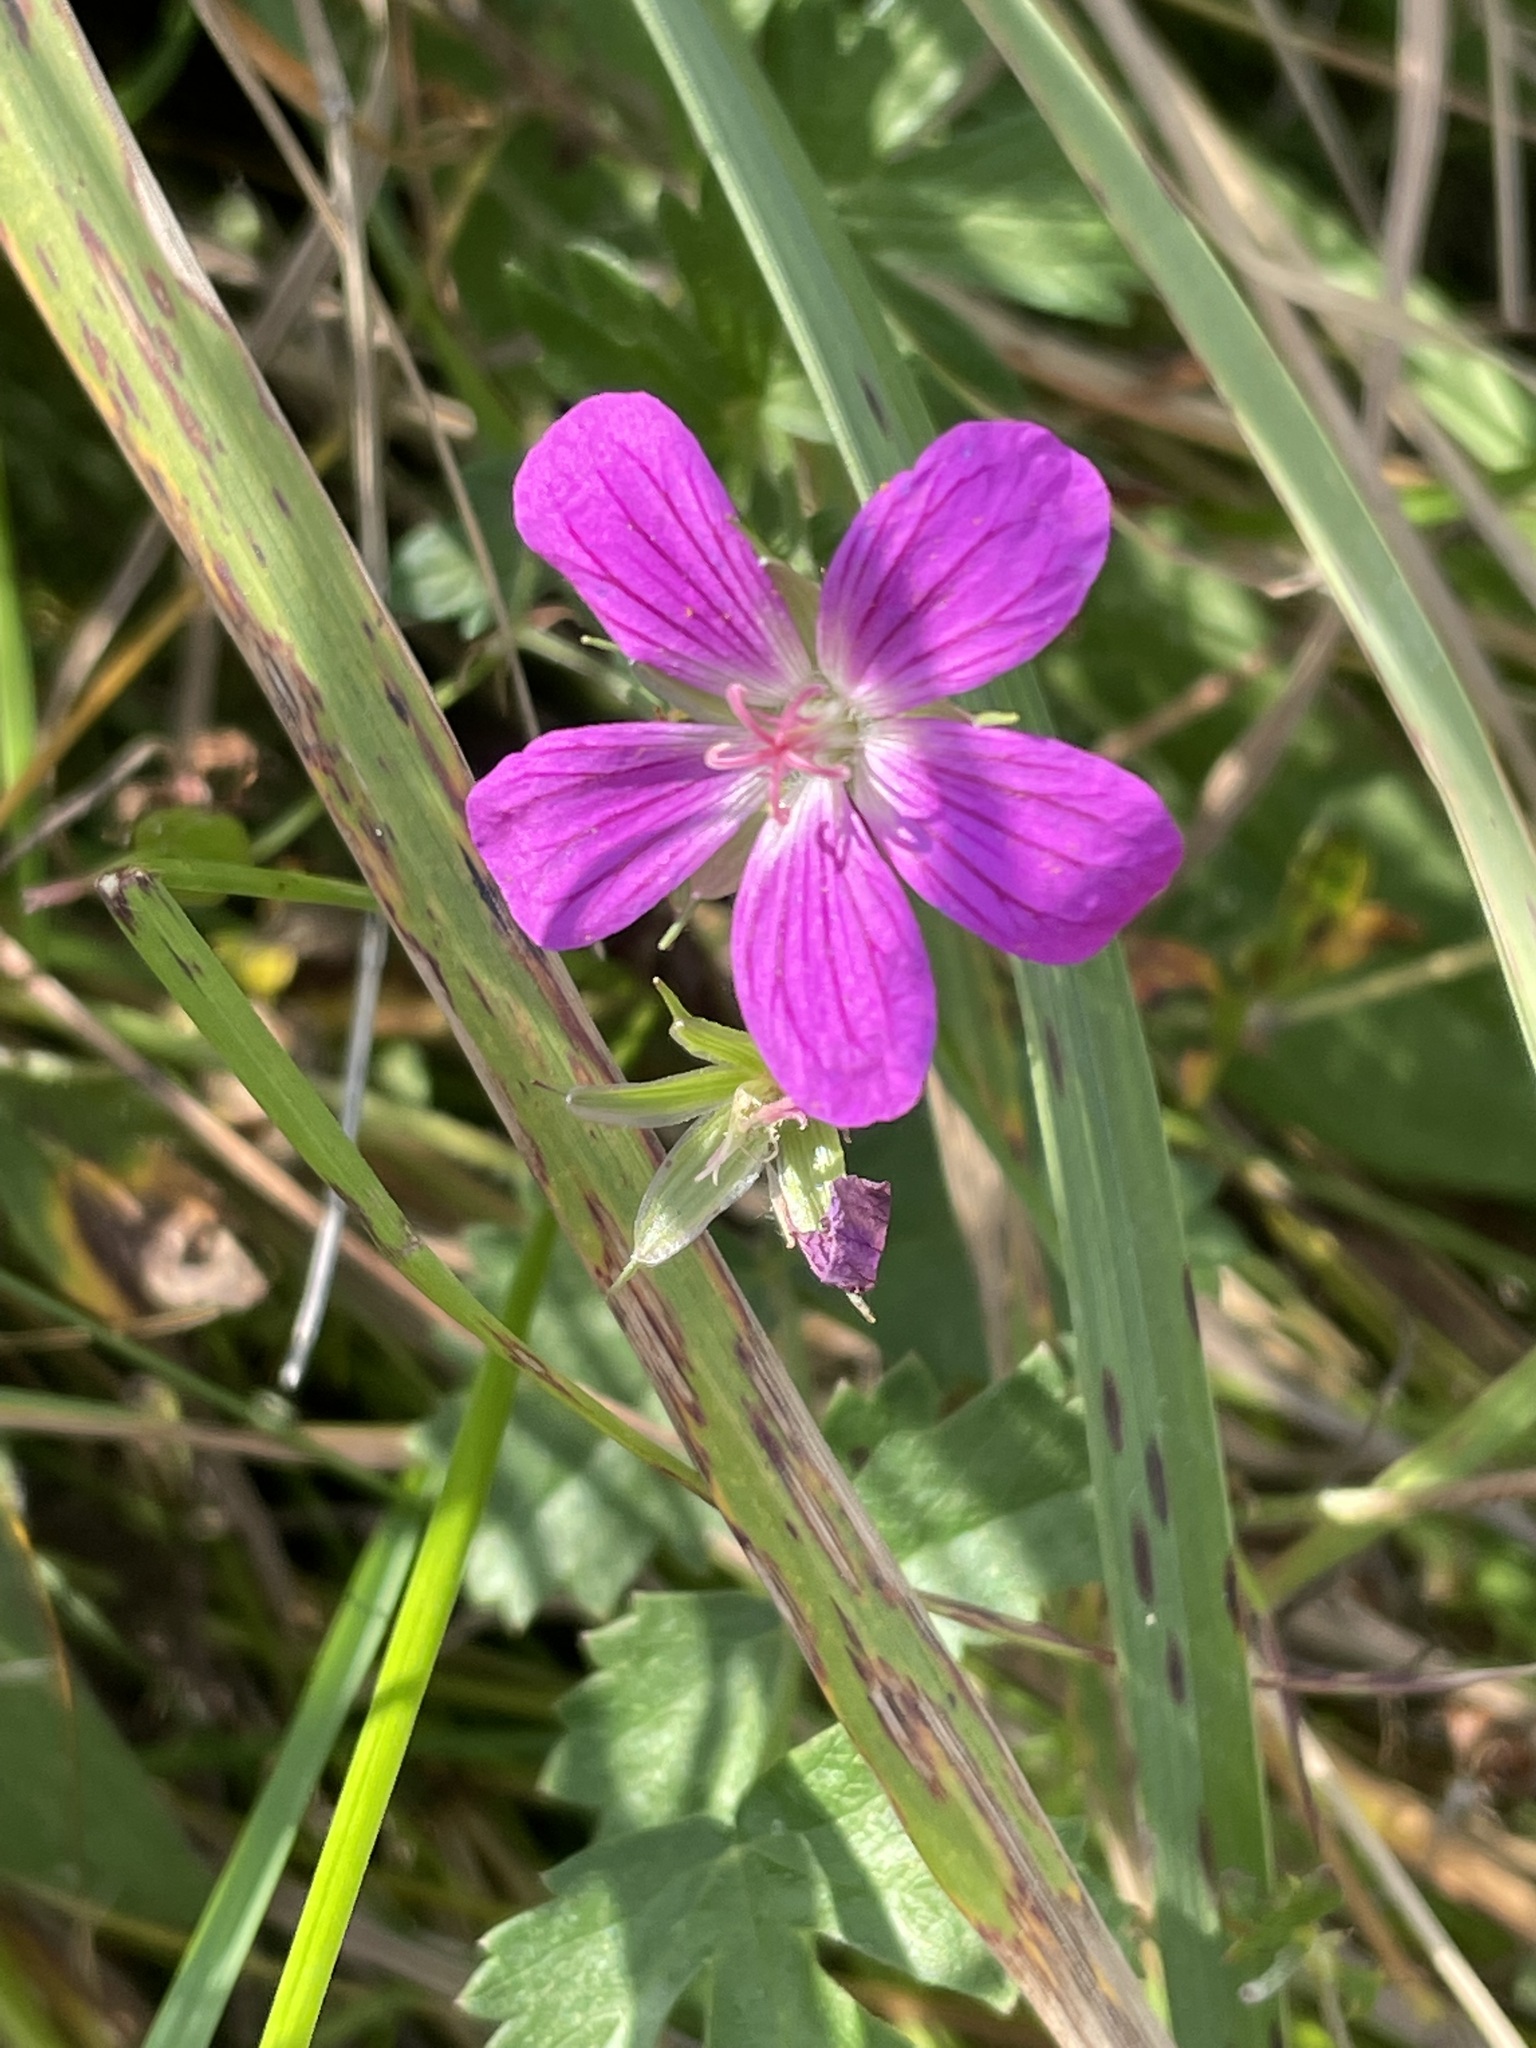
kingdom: Plantae
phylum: Tracheophyta
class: Magnoliopsida
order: Geraniales
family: Geraniaceae
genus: Geranium
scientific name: Geranium palustre
